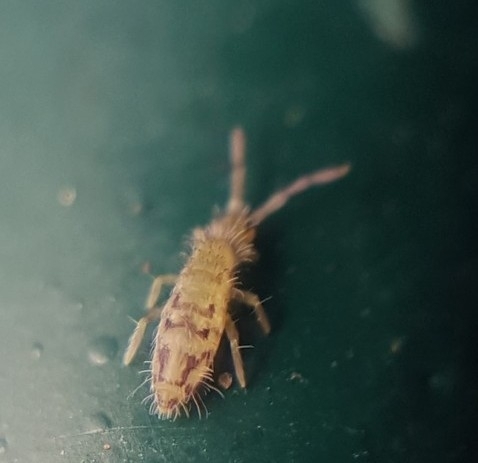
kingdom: Animalia
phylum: Arthropoda
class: Collembola
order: Entomobryomorpha
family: Entomobryidae
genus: Entomobrya
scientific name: Entomobrya nivalis
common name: Cosmopolitan springtail
